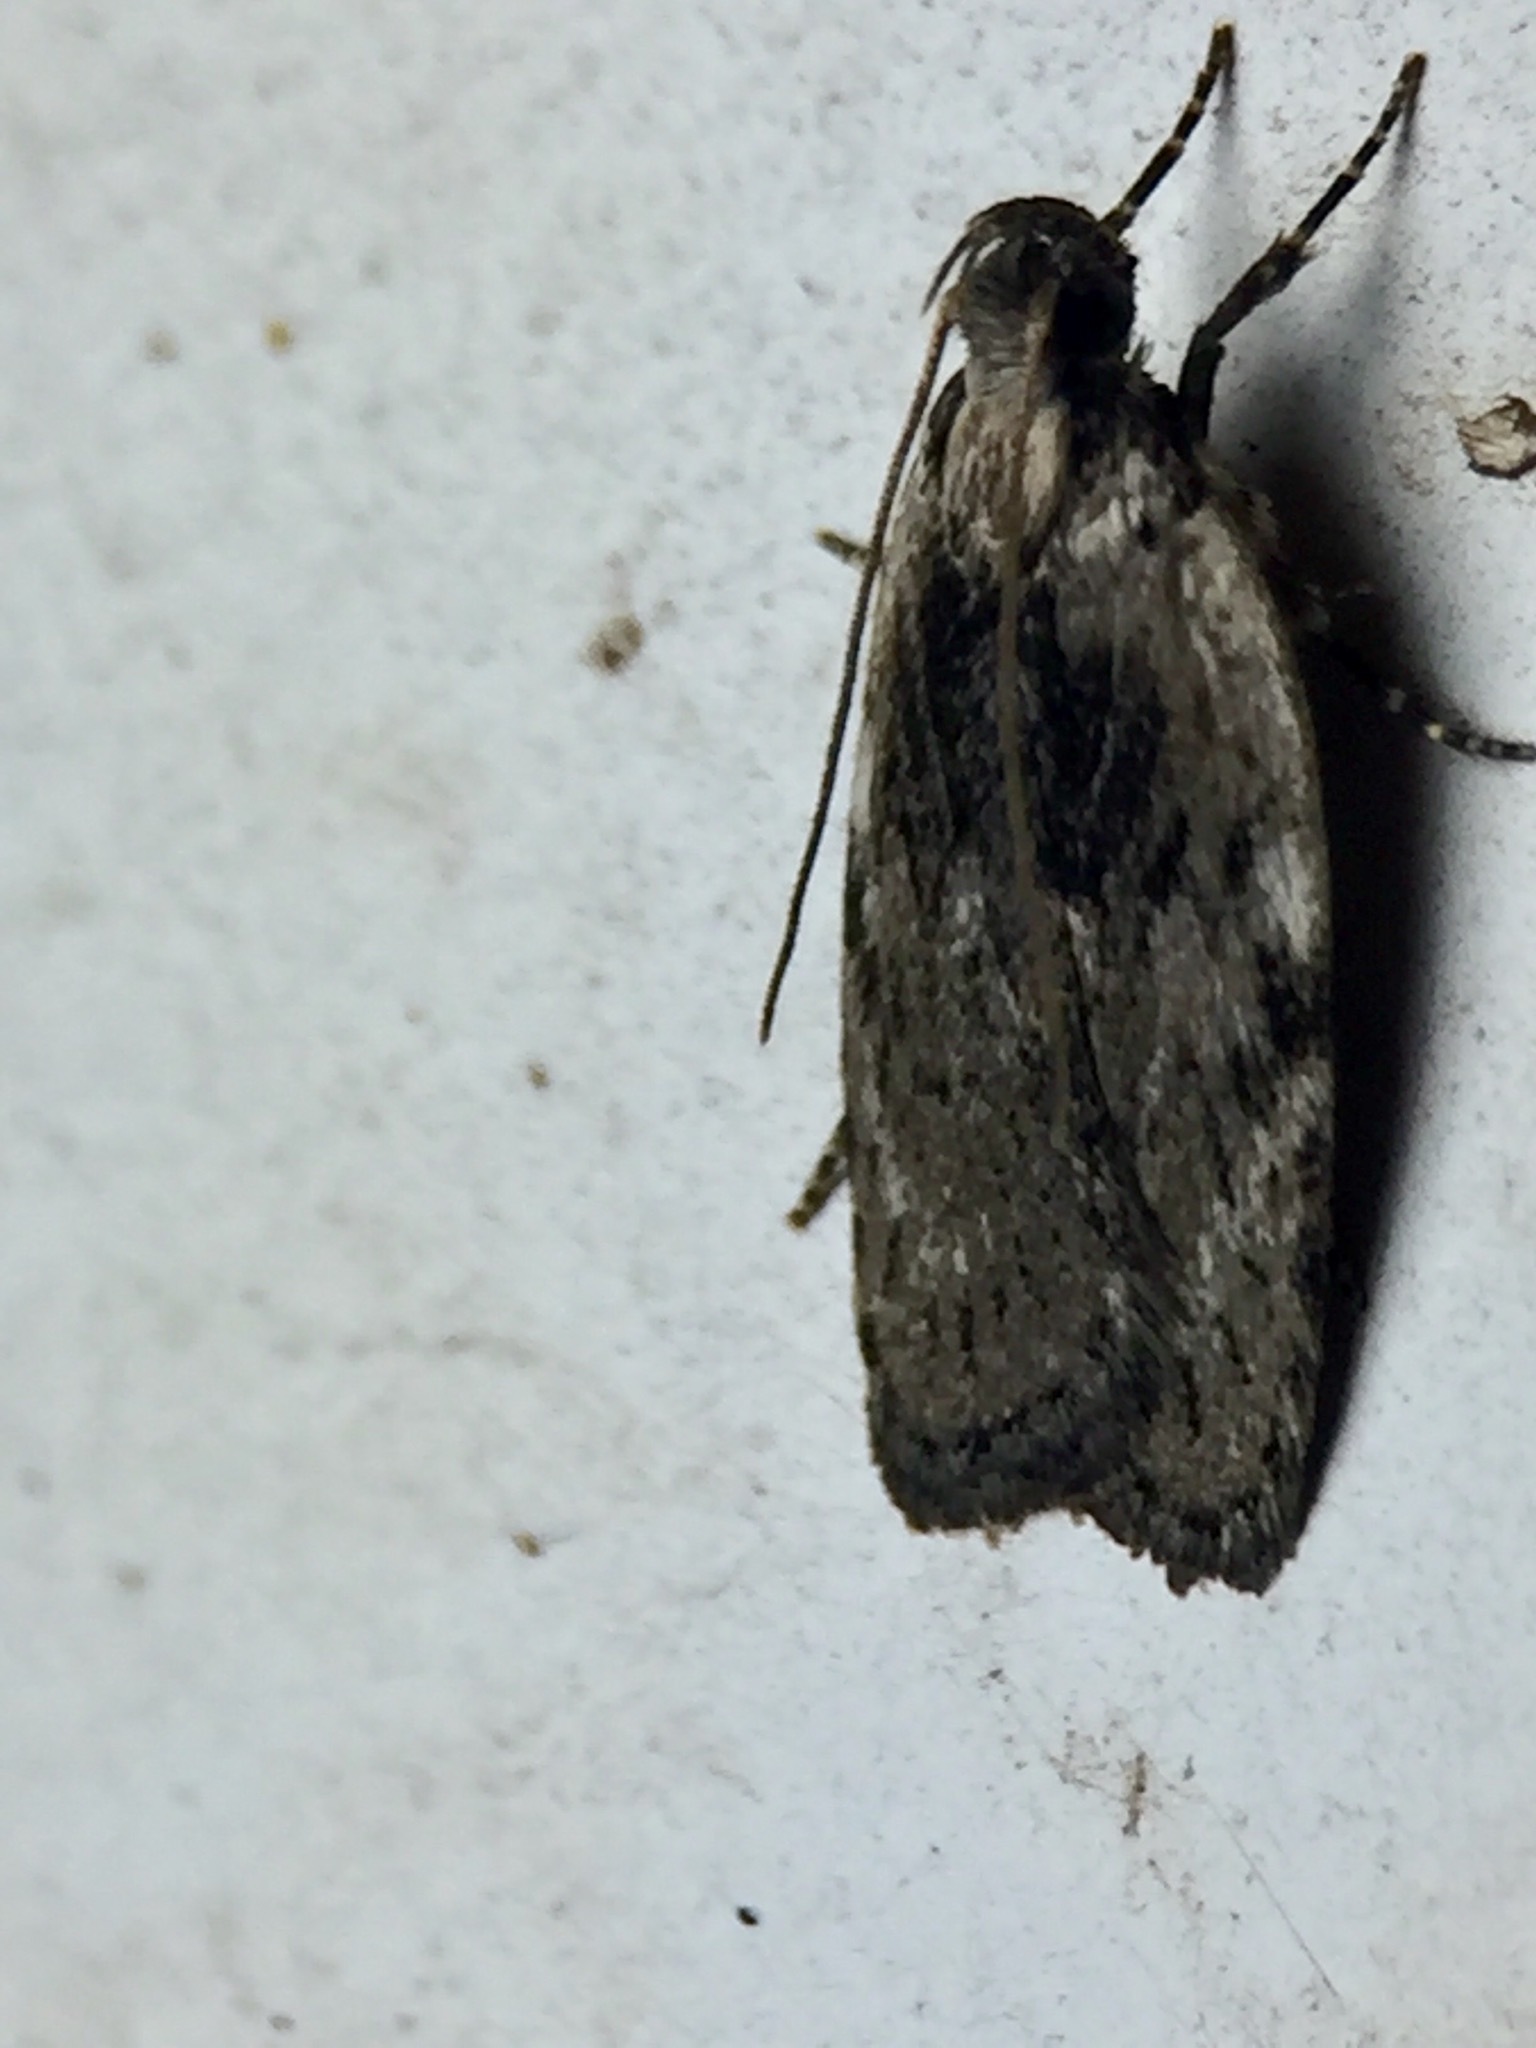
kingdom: Animalia
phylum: Arthropoda
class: Insecta
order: Lepidoptera
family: Depressariidae
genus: Phaeosaces
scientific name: Phaeosaces compsotypa
